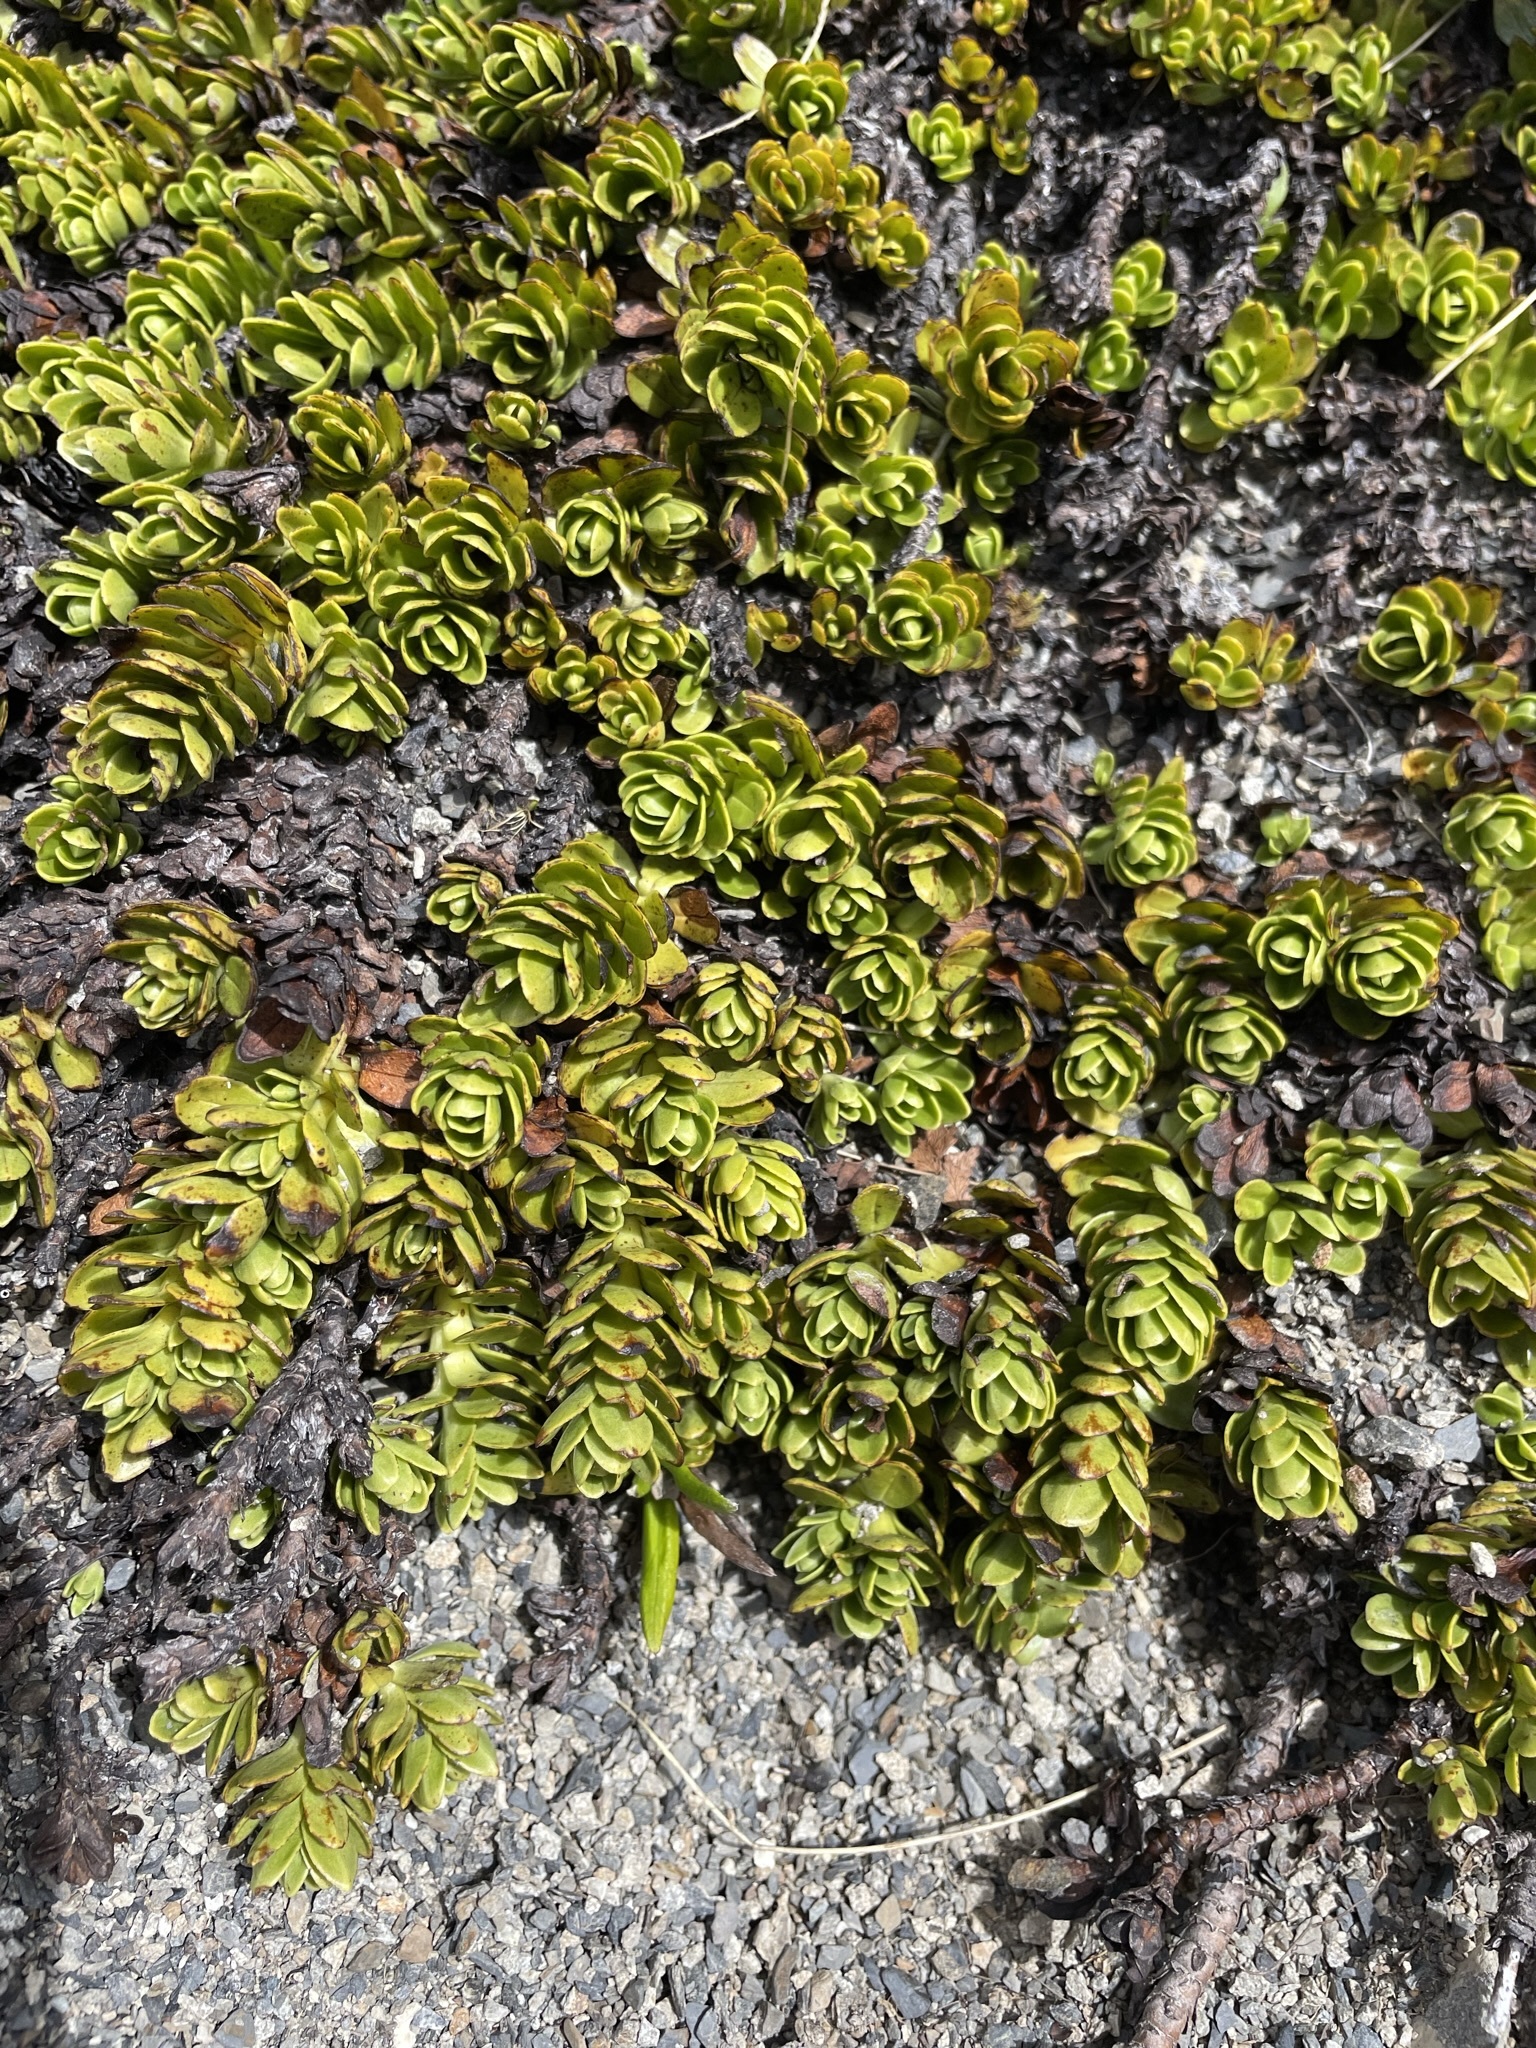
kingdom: Plantae
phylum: Tracheophyta
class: Magnoliopsida
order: Lamiales
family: Plantaginaceae
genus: Veronica
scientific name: Veronica macrocalyx
